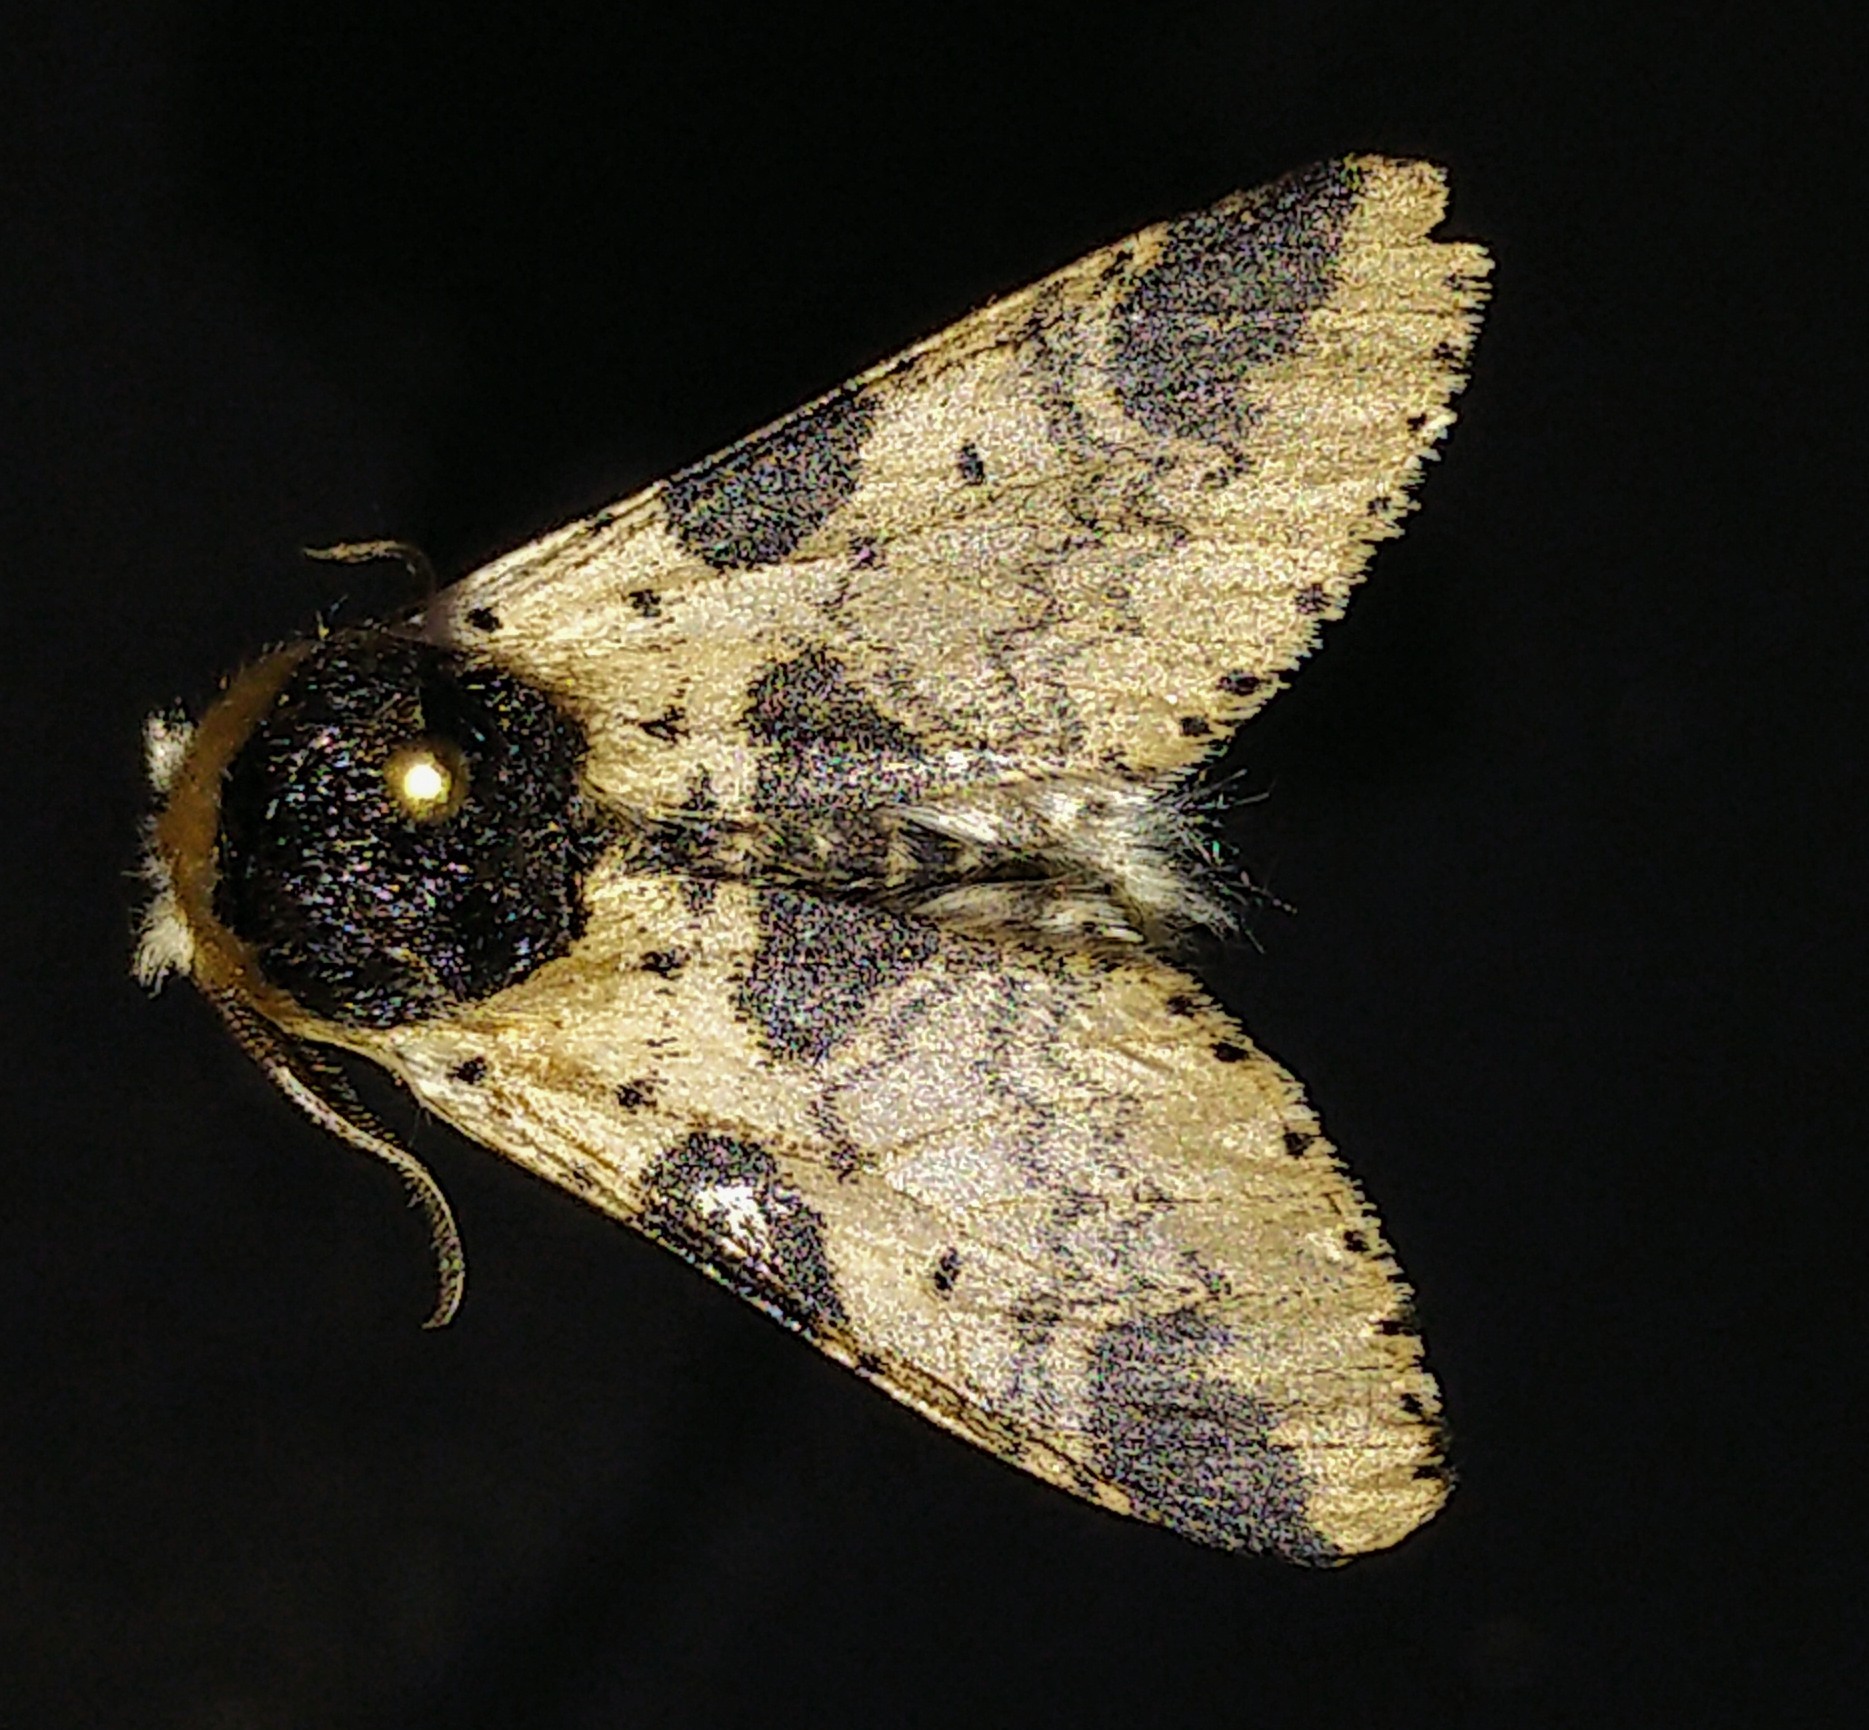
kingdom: Animalia
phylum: Arthropoda
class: Insecta
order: Lepidoptera
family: Notodontidae
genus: Furcula
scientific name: Furcula modesta
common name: Modest furcula moth
